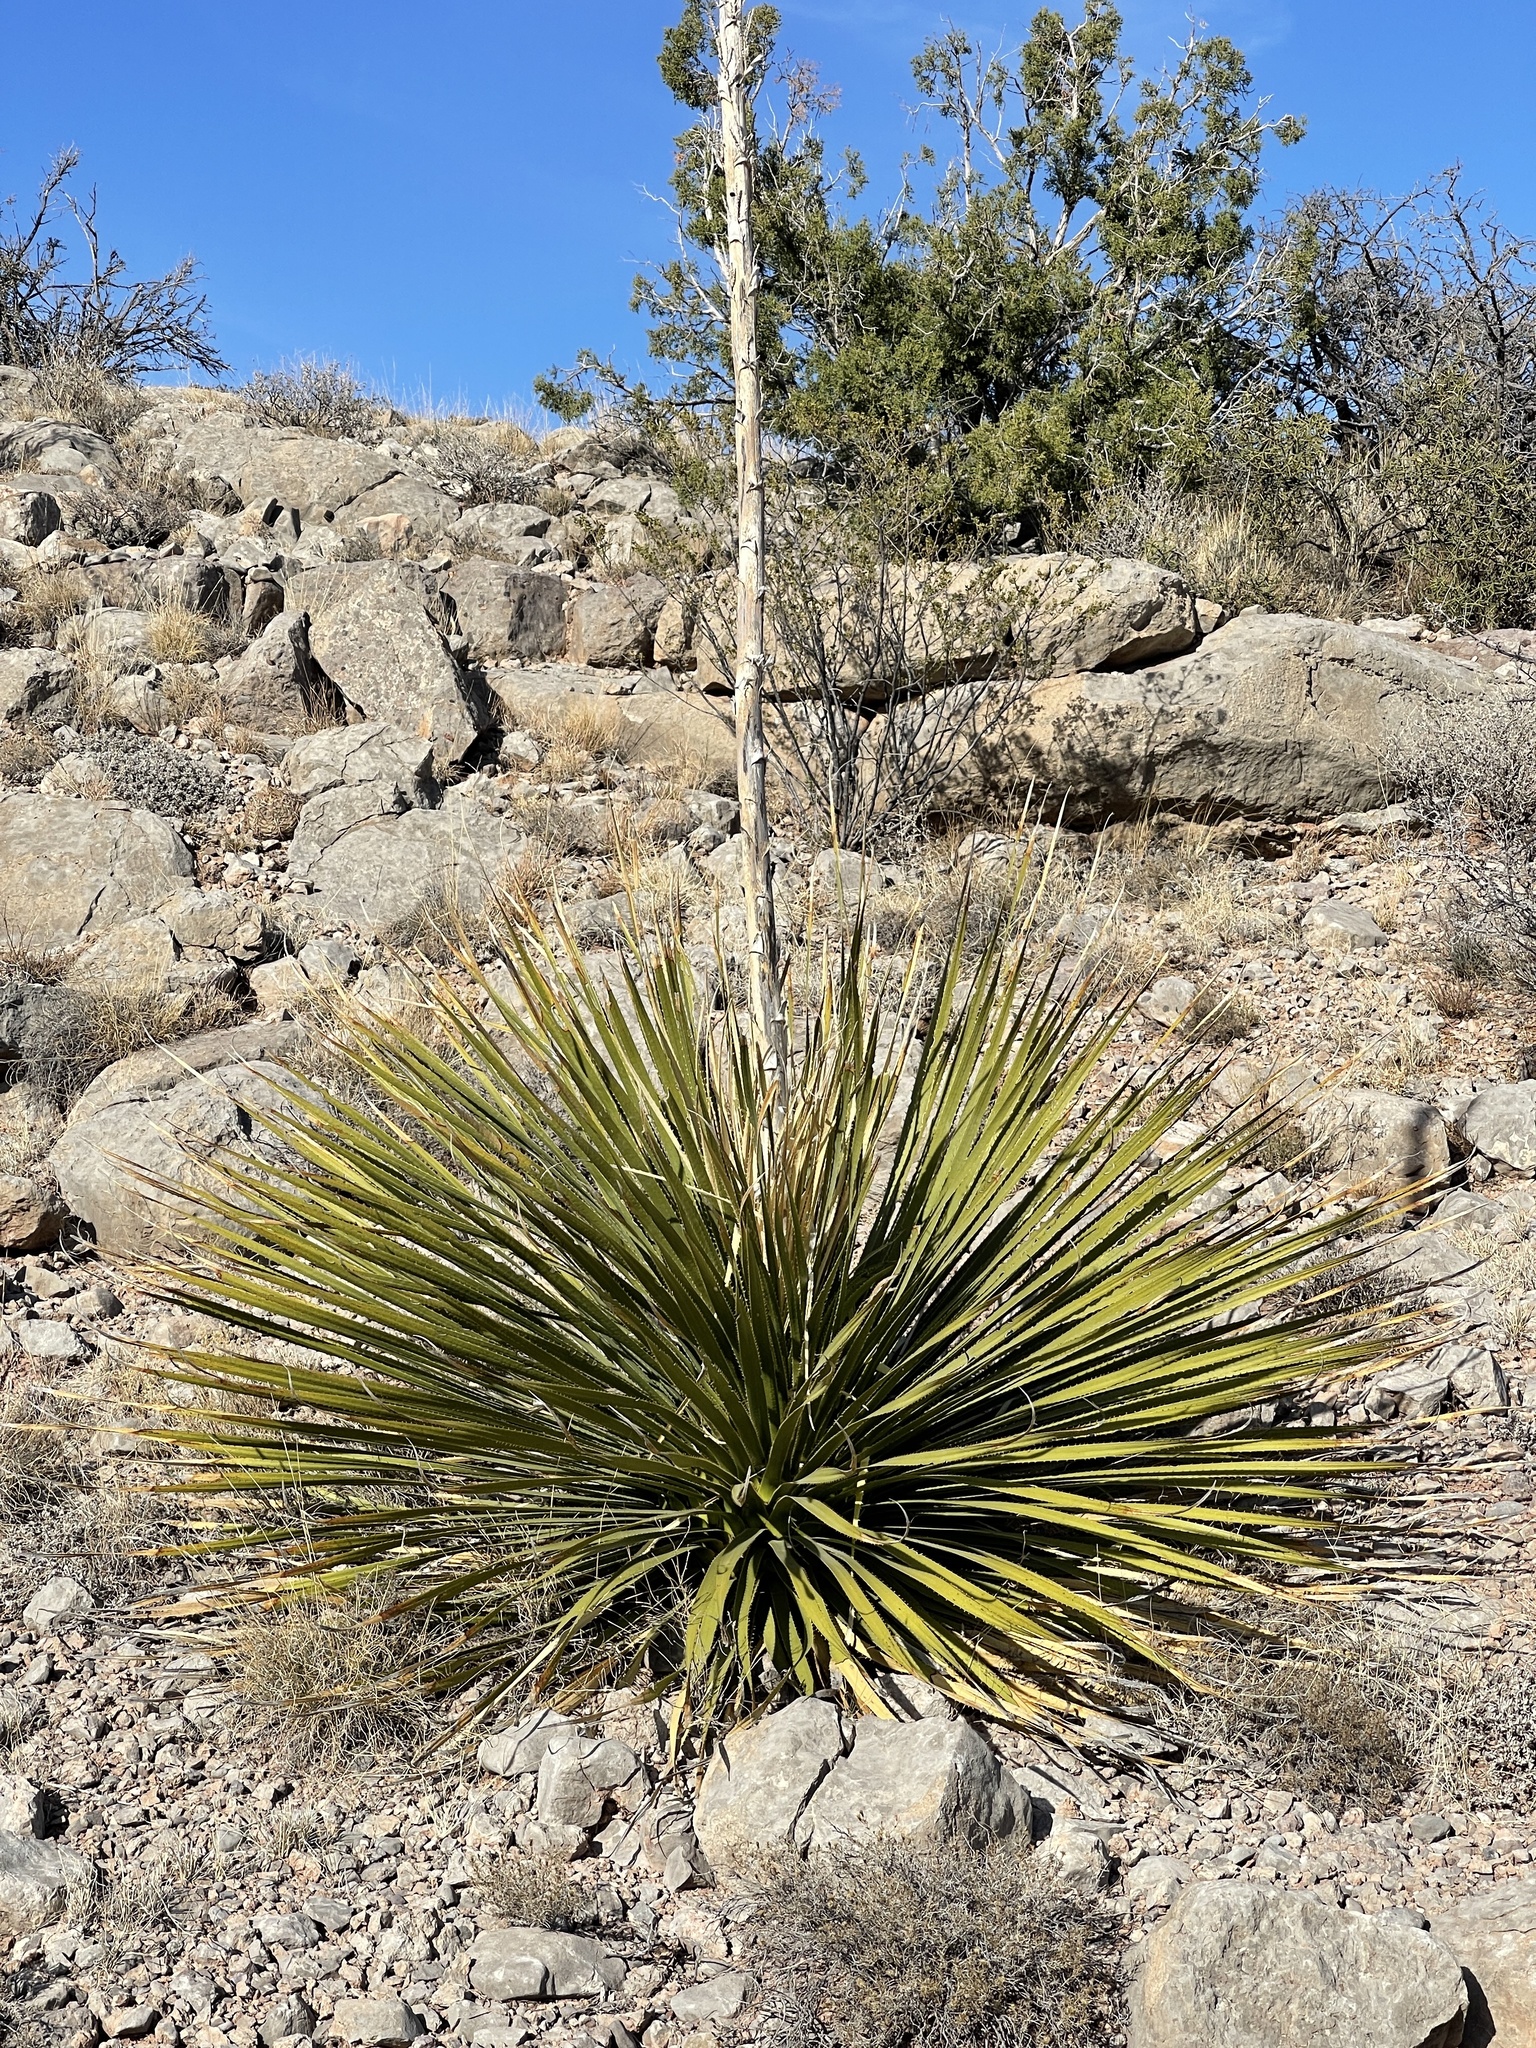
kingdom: Plantae
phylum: Tracheophyta
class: Liliopsida
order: Asparagales
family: Asparagaceae
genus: Dasylirion
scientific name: Dasylirion wheeleri
